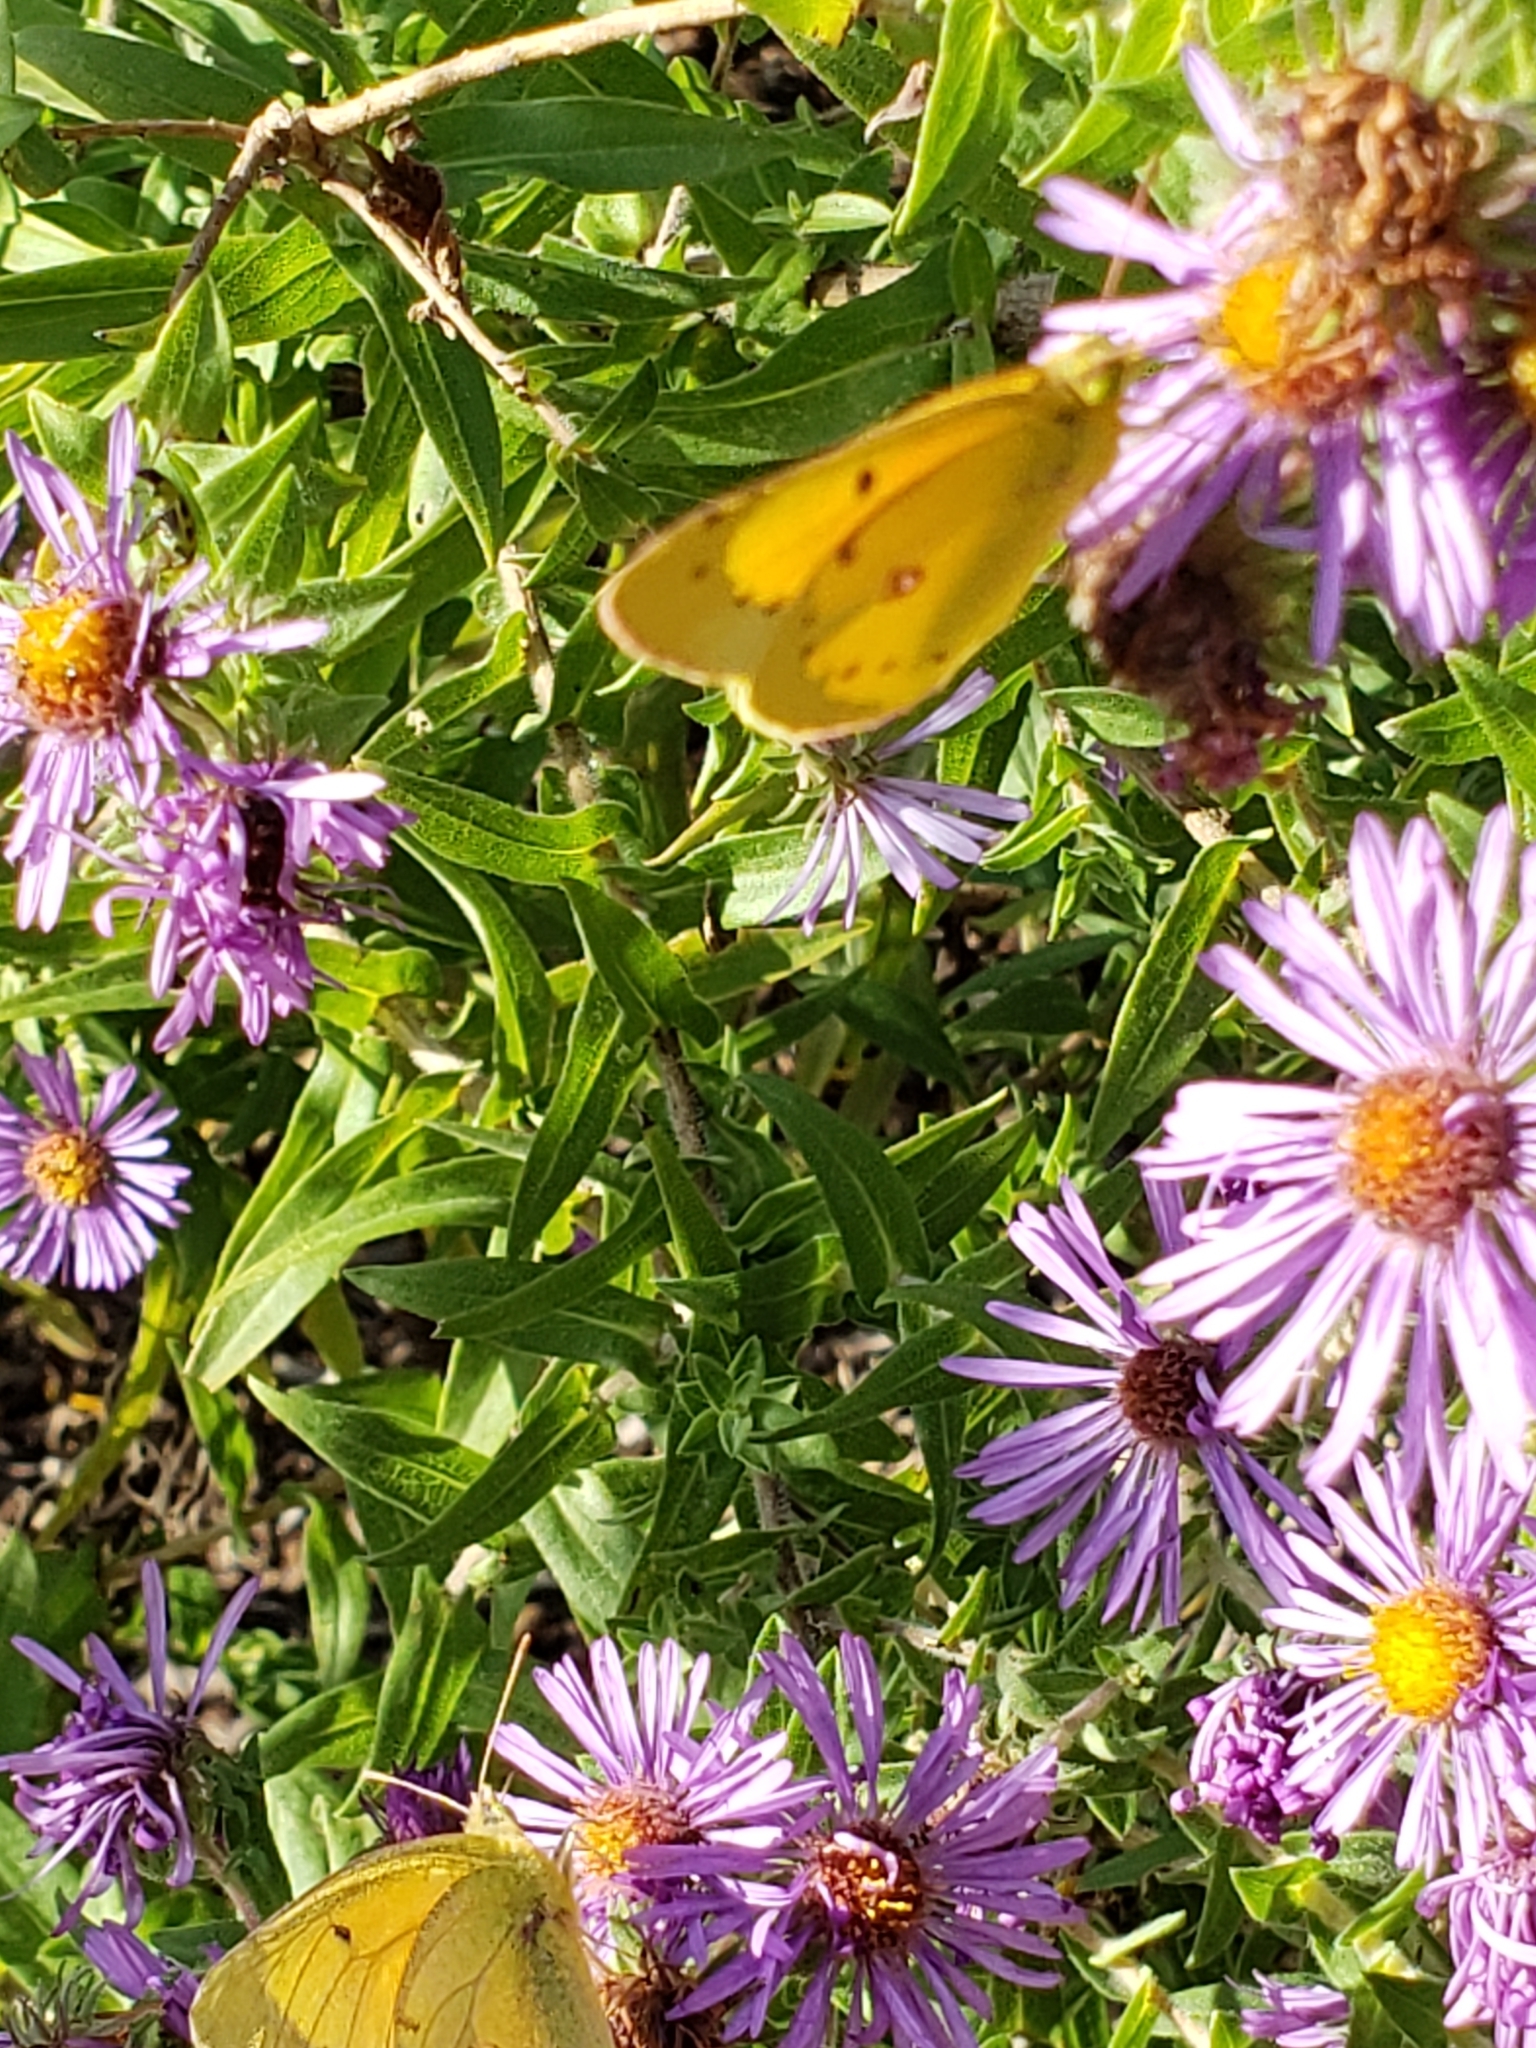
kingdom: Animalia
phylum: Arthropoda
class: Insecta
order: Lepidoptera
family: Pieridae
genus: Colias
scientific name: Colias eurytheme
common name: Alfalfa butterfly
